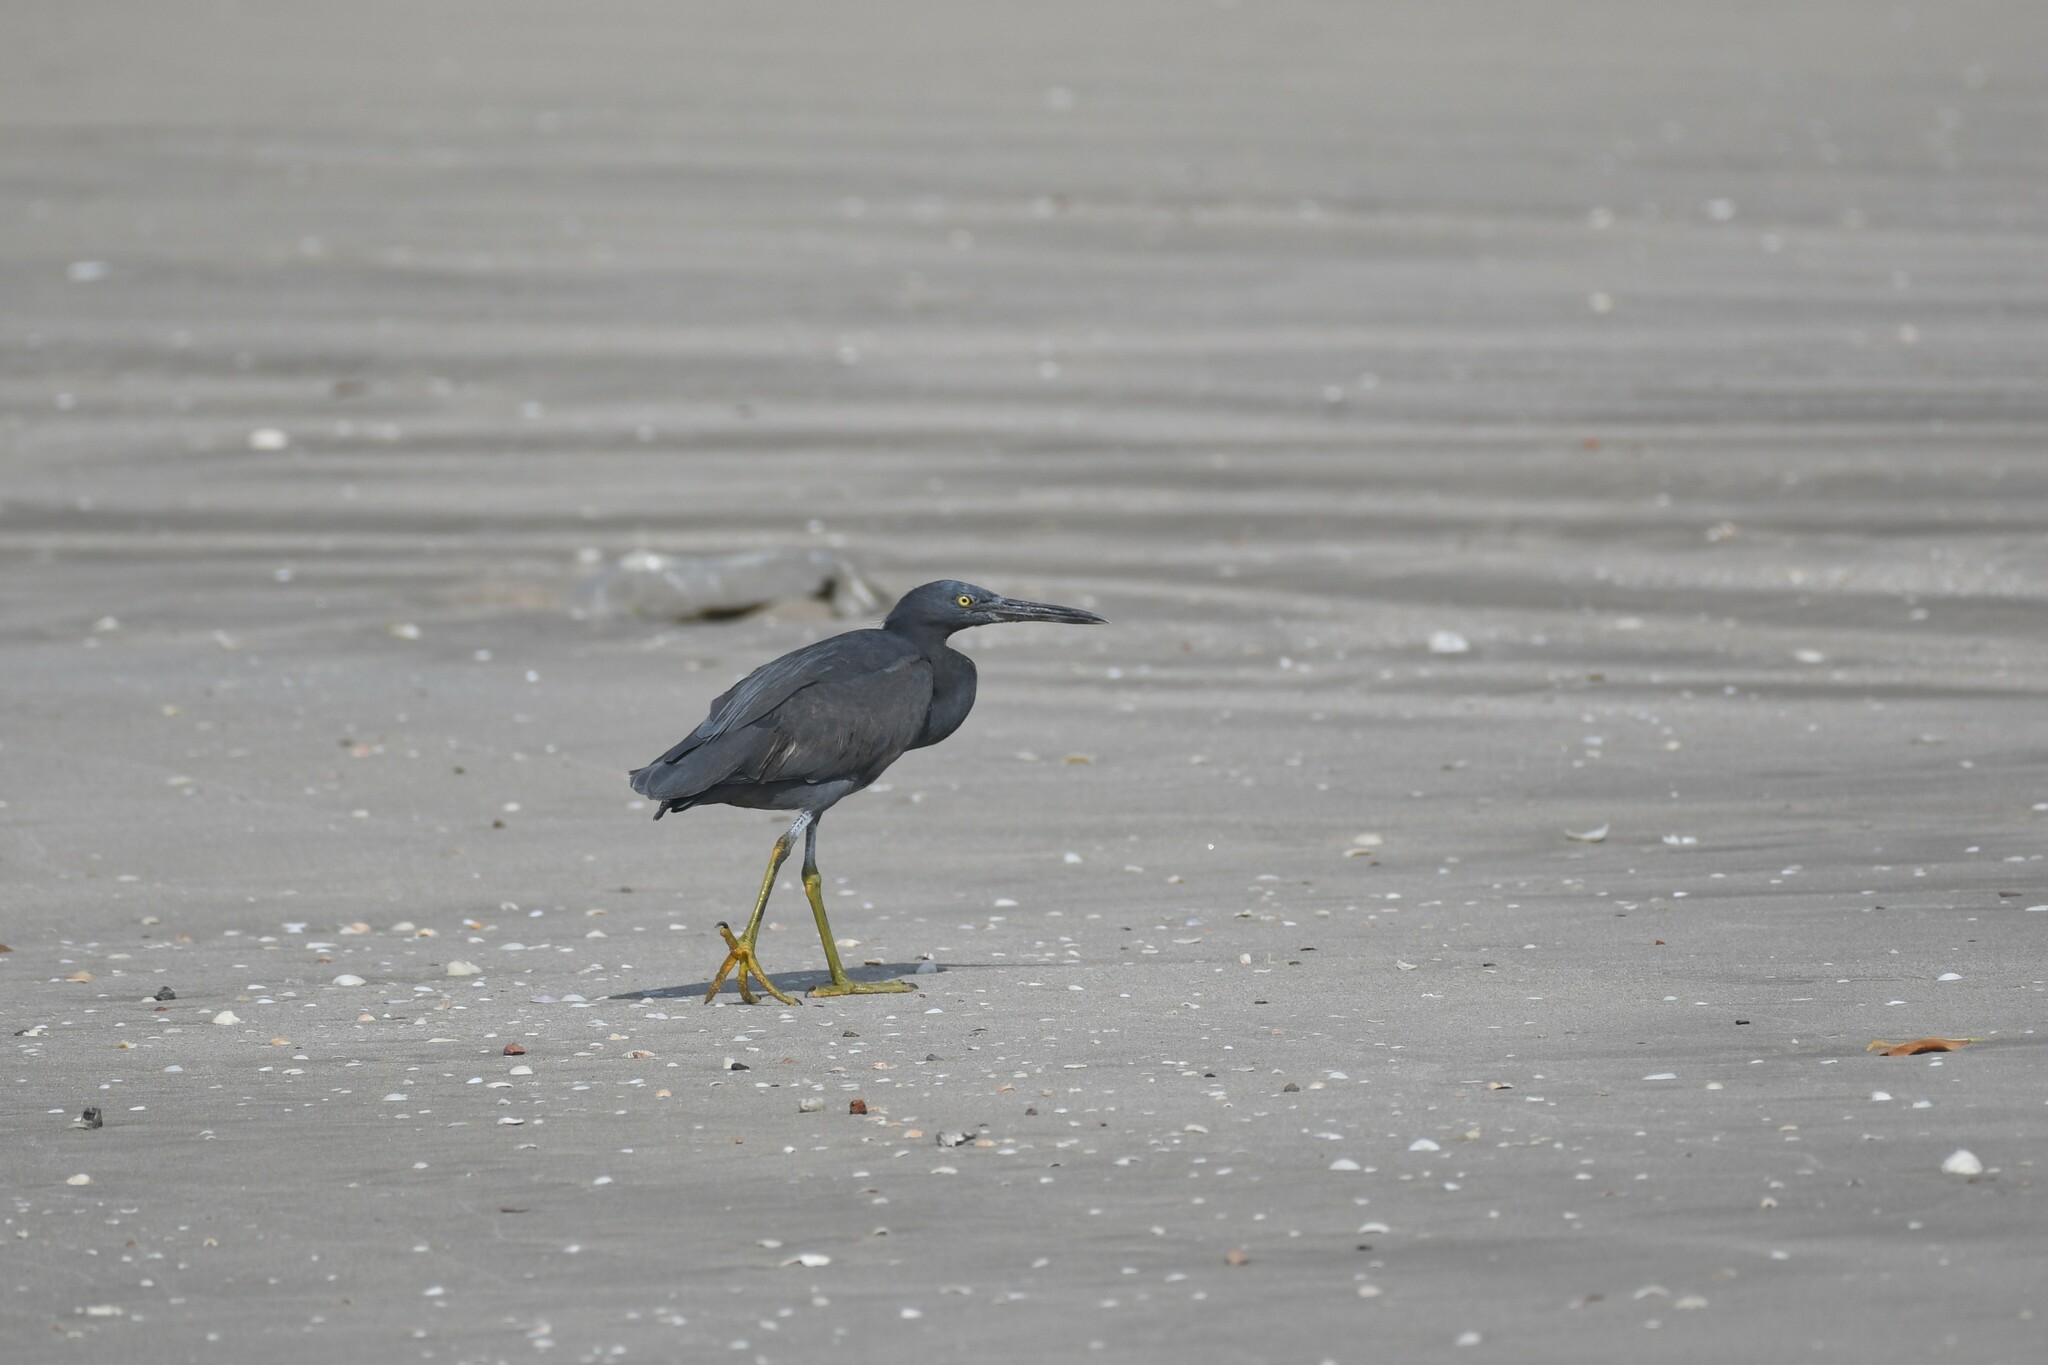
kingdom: Animalia
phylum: Chordata
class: Aves
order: Pelecaniformes
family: Ardeidae
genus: Egretta
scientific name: Egretta sacra
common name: Pacific reef heron
